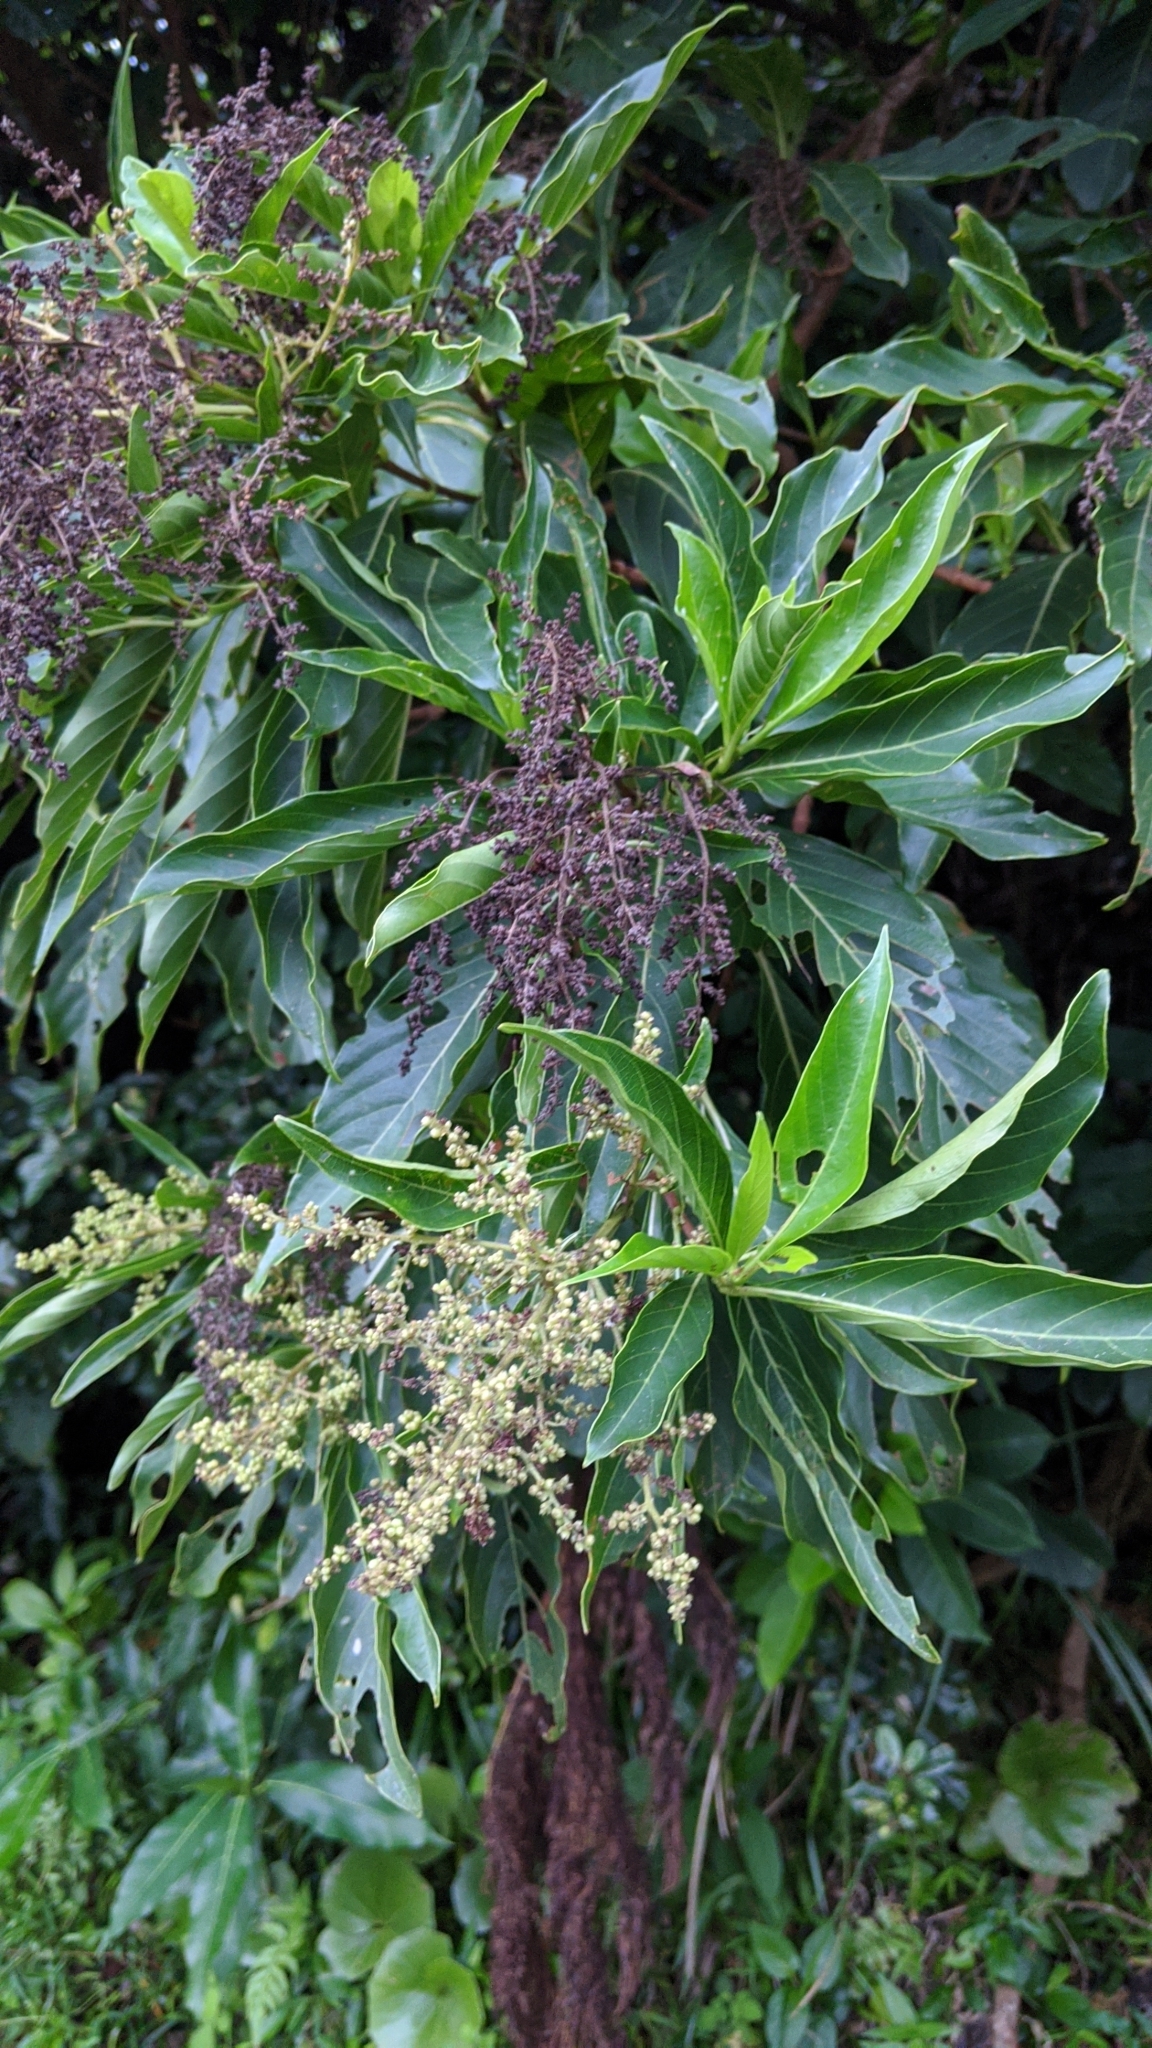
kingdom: Plantae
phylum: Tracheophyta
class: Magnoliopsida
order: Gentianales
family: Rubiaceae
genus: Wendlandia
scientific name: Wendlandia luzoniensis
